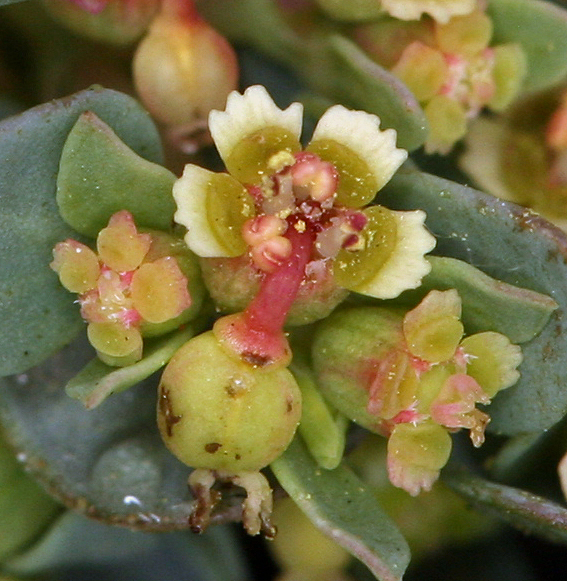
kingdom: Plantae
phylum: Tracheophyta
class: Magnoliopsida
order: Malpighiales
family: Euphorbiaceae
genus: Euphorbia
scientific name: Euphorbia fendleri
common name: Fendler's euphorbia
